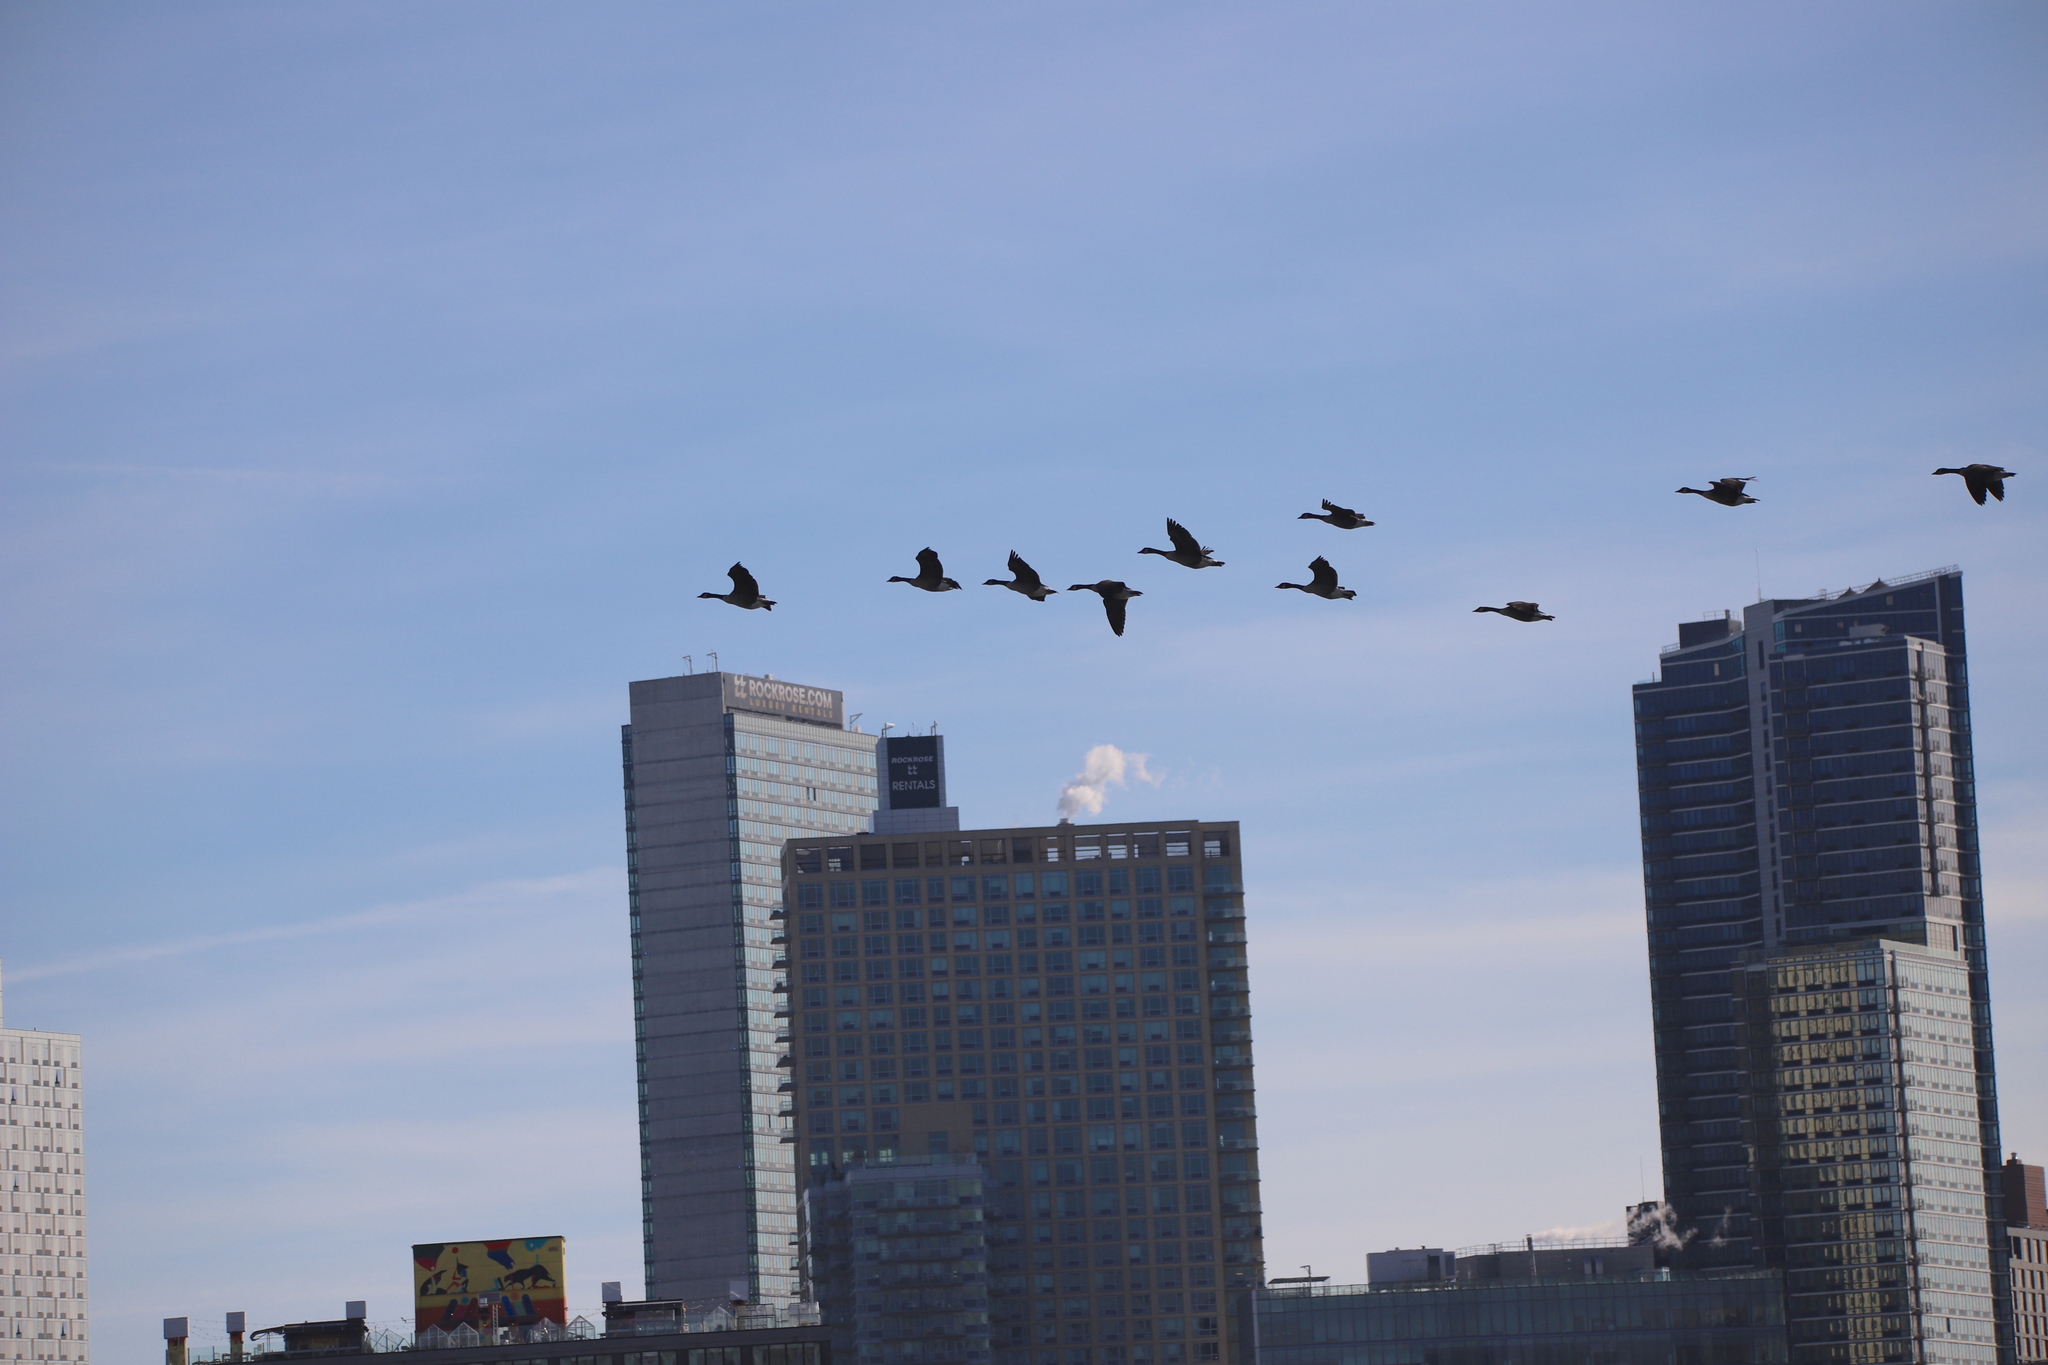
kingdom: Animalia
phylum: Chordata
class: Aves
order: Anseriformes
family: Anatidae
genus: Branta
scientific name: Branta canadensis
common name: Canada goose
